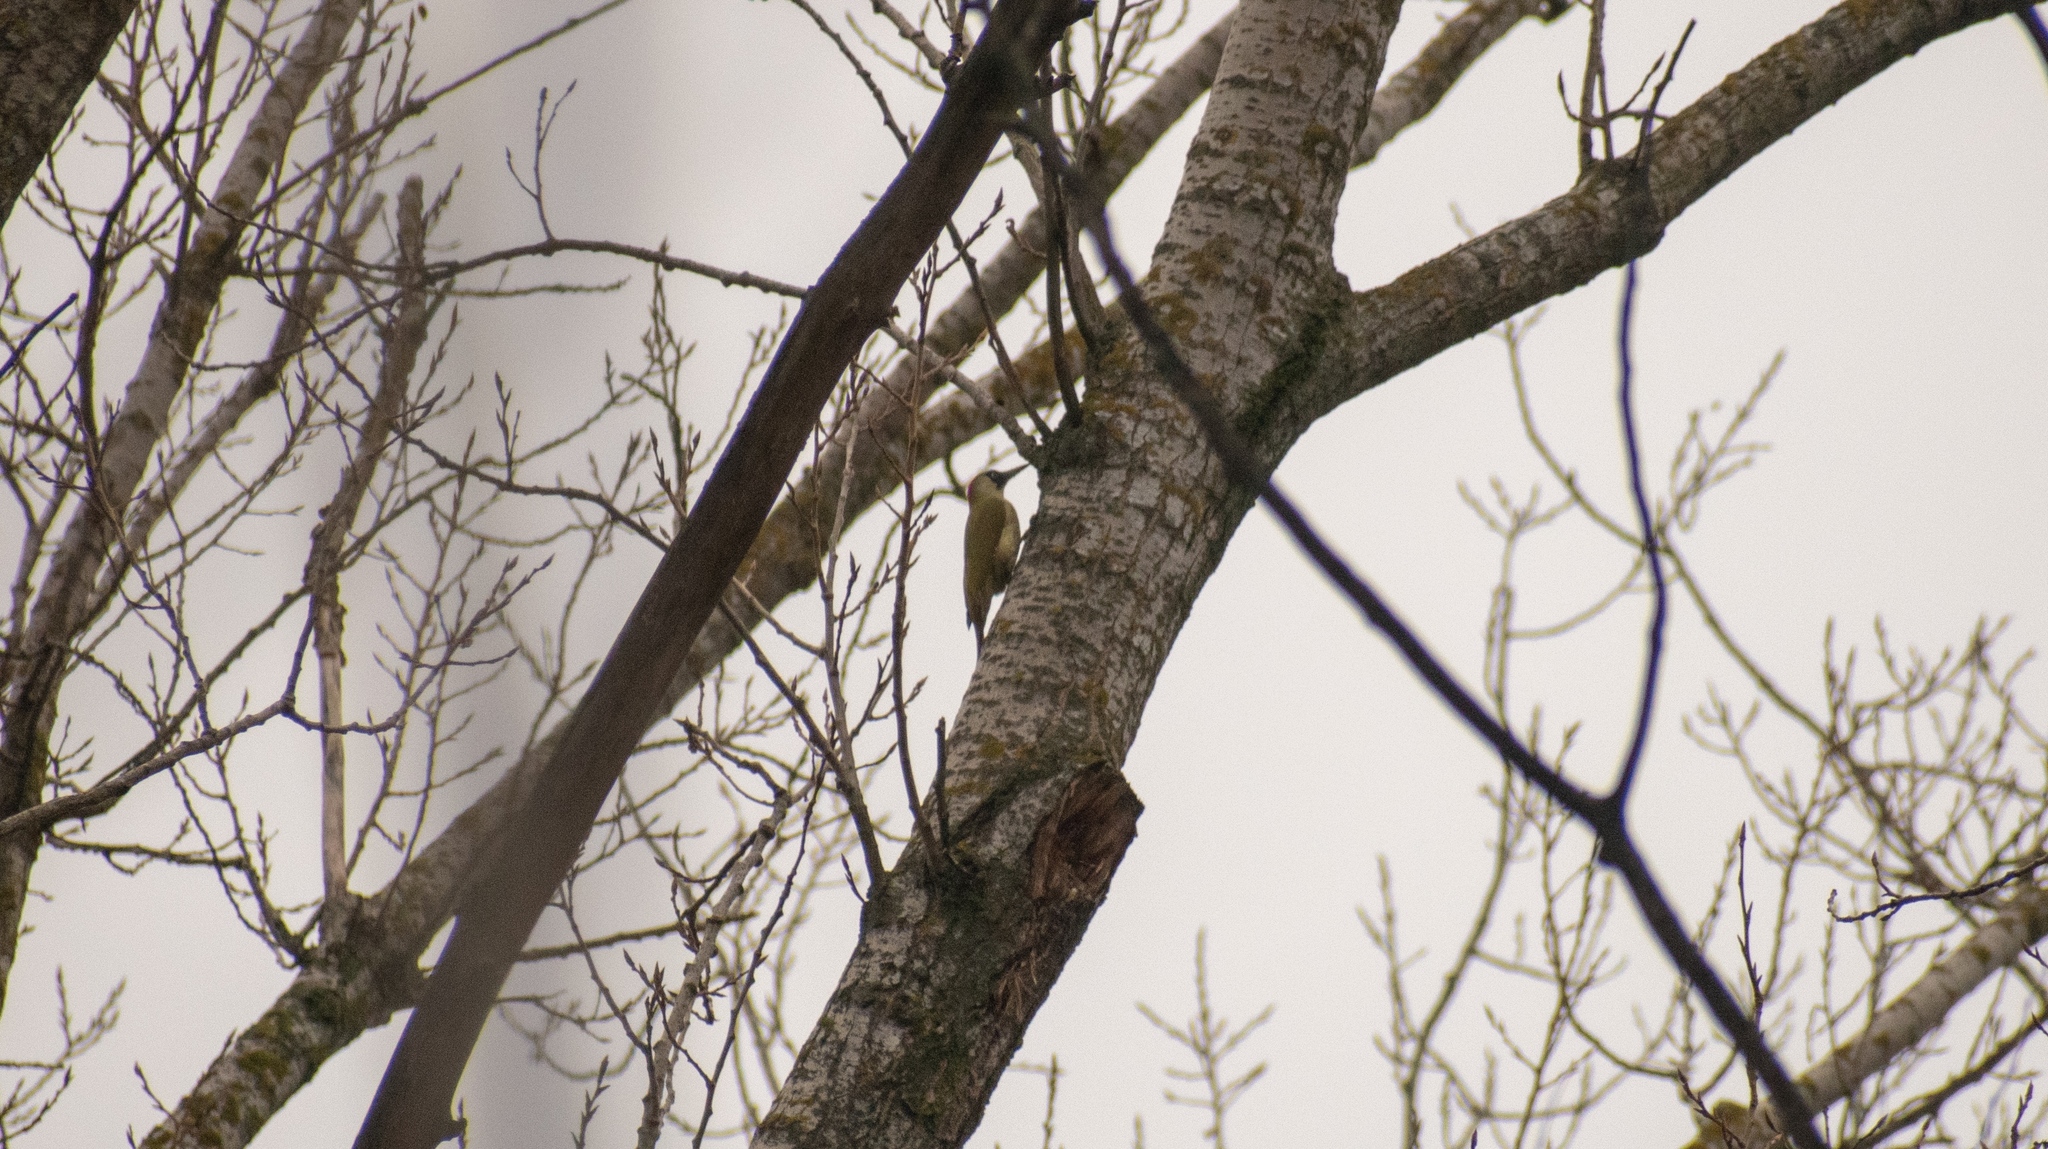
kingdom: Animalia
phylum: Chordata
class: Aves
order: Piciformes
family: Picidae
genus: Picus
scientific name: Picus viridis
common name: European green woodpecker
